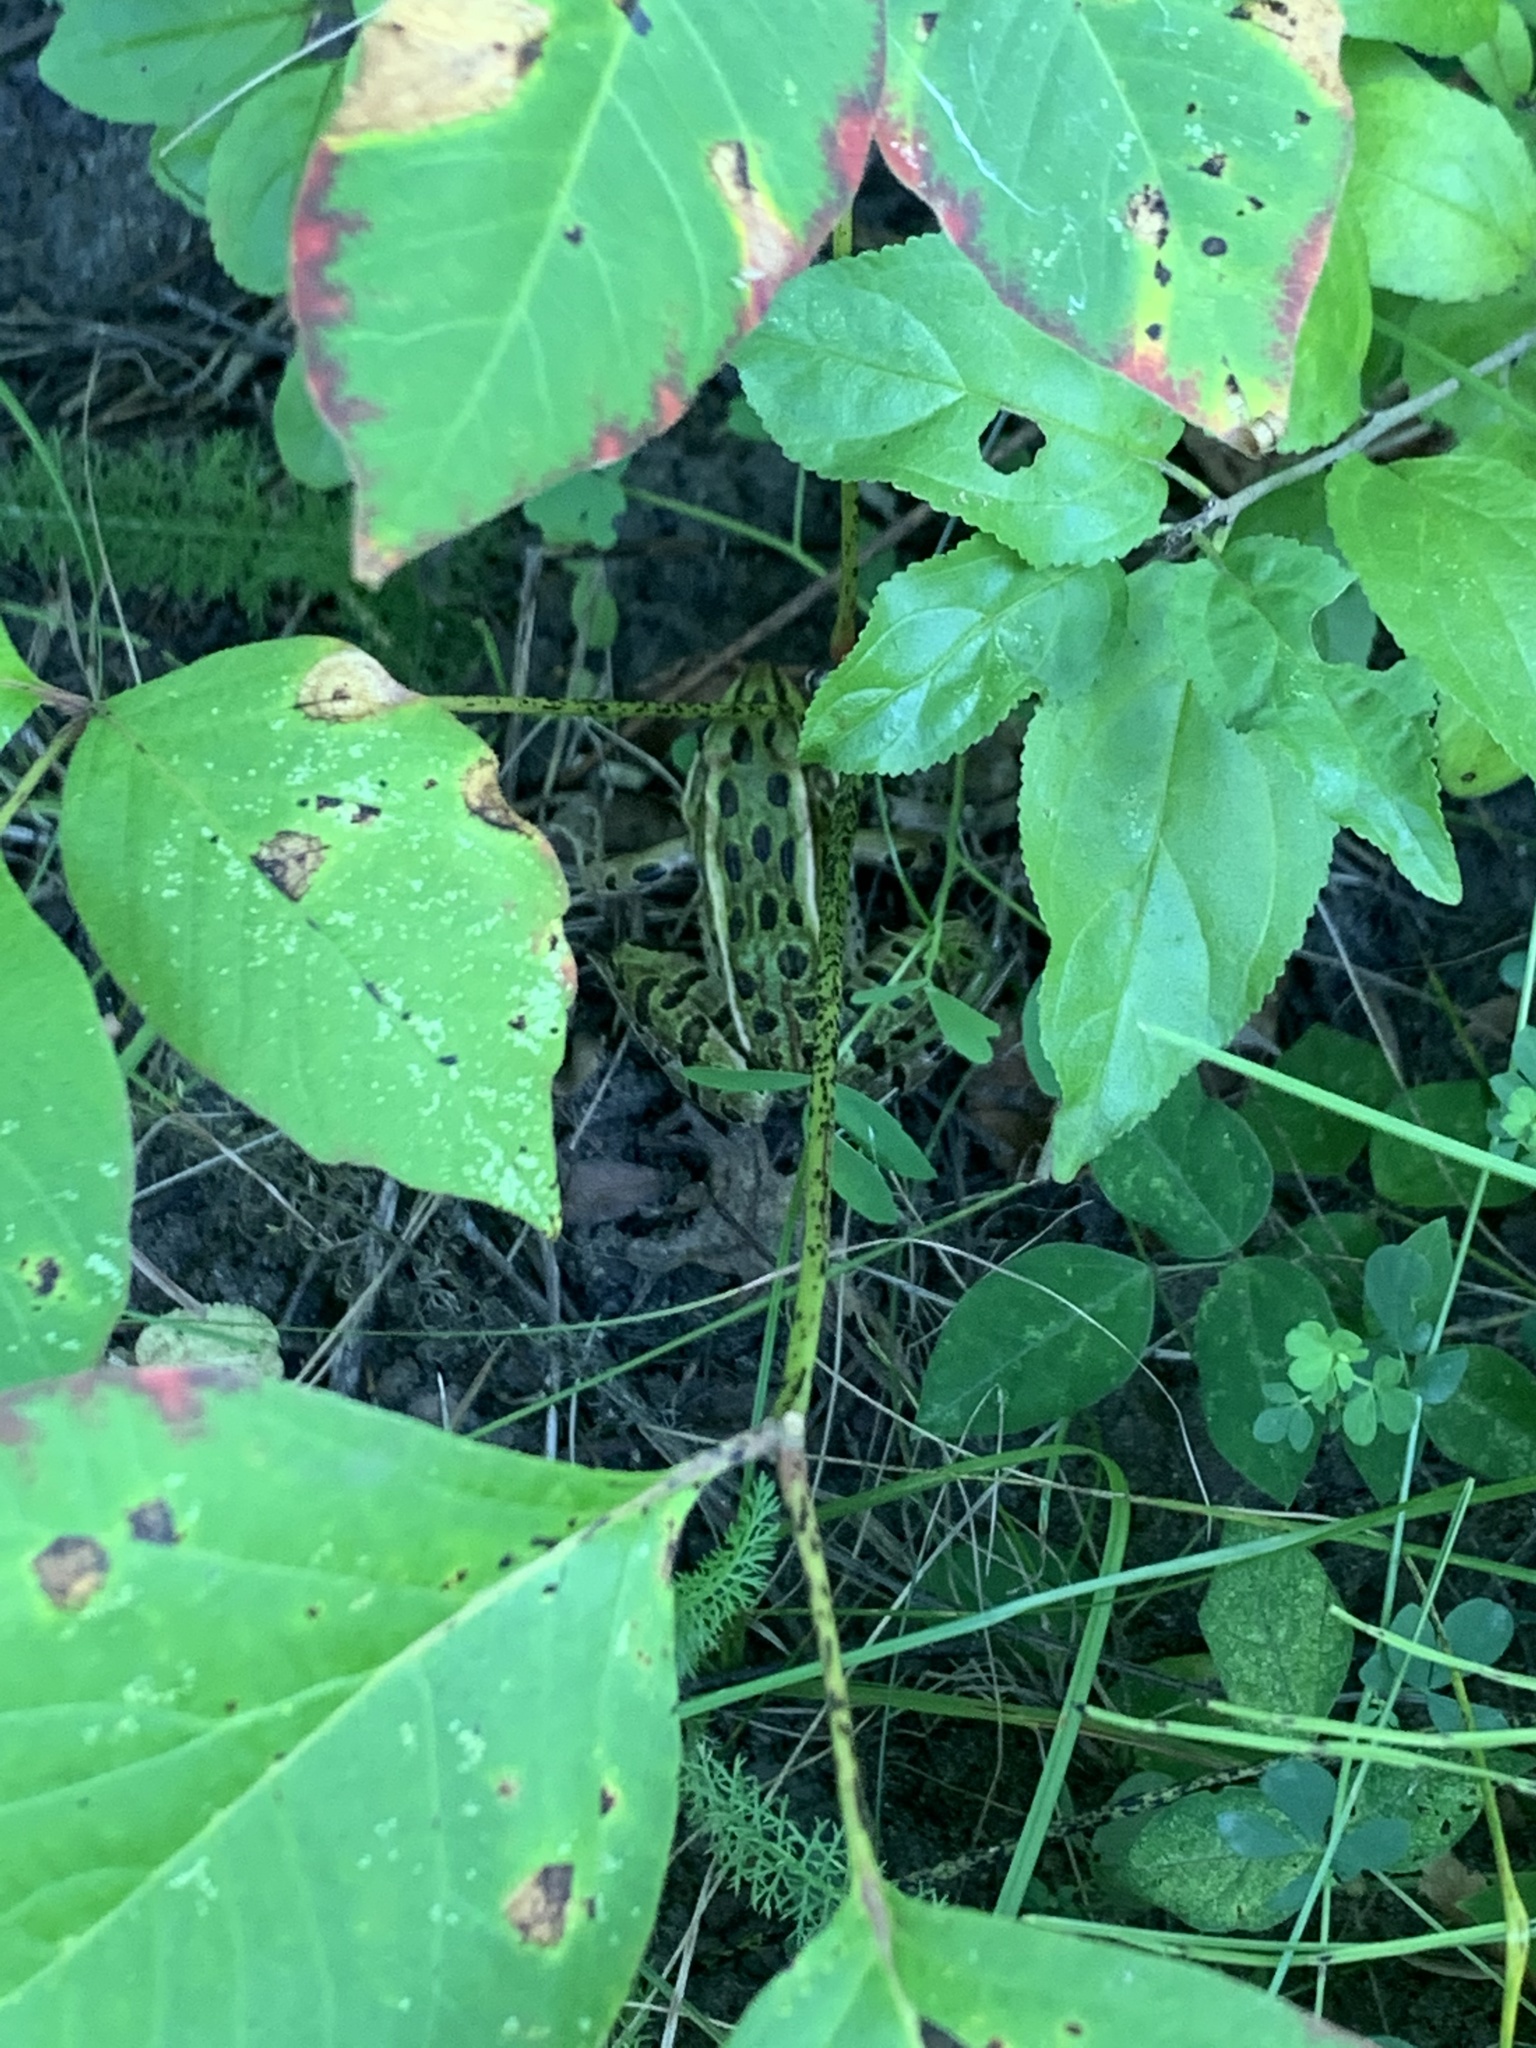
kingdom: Animalia
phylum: Chordata
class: Amphibia
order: Anura
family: Ranidae
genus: Lithobates
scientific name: Lithobates pipiens
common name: Northern leopard frog
